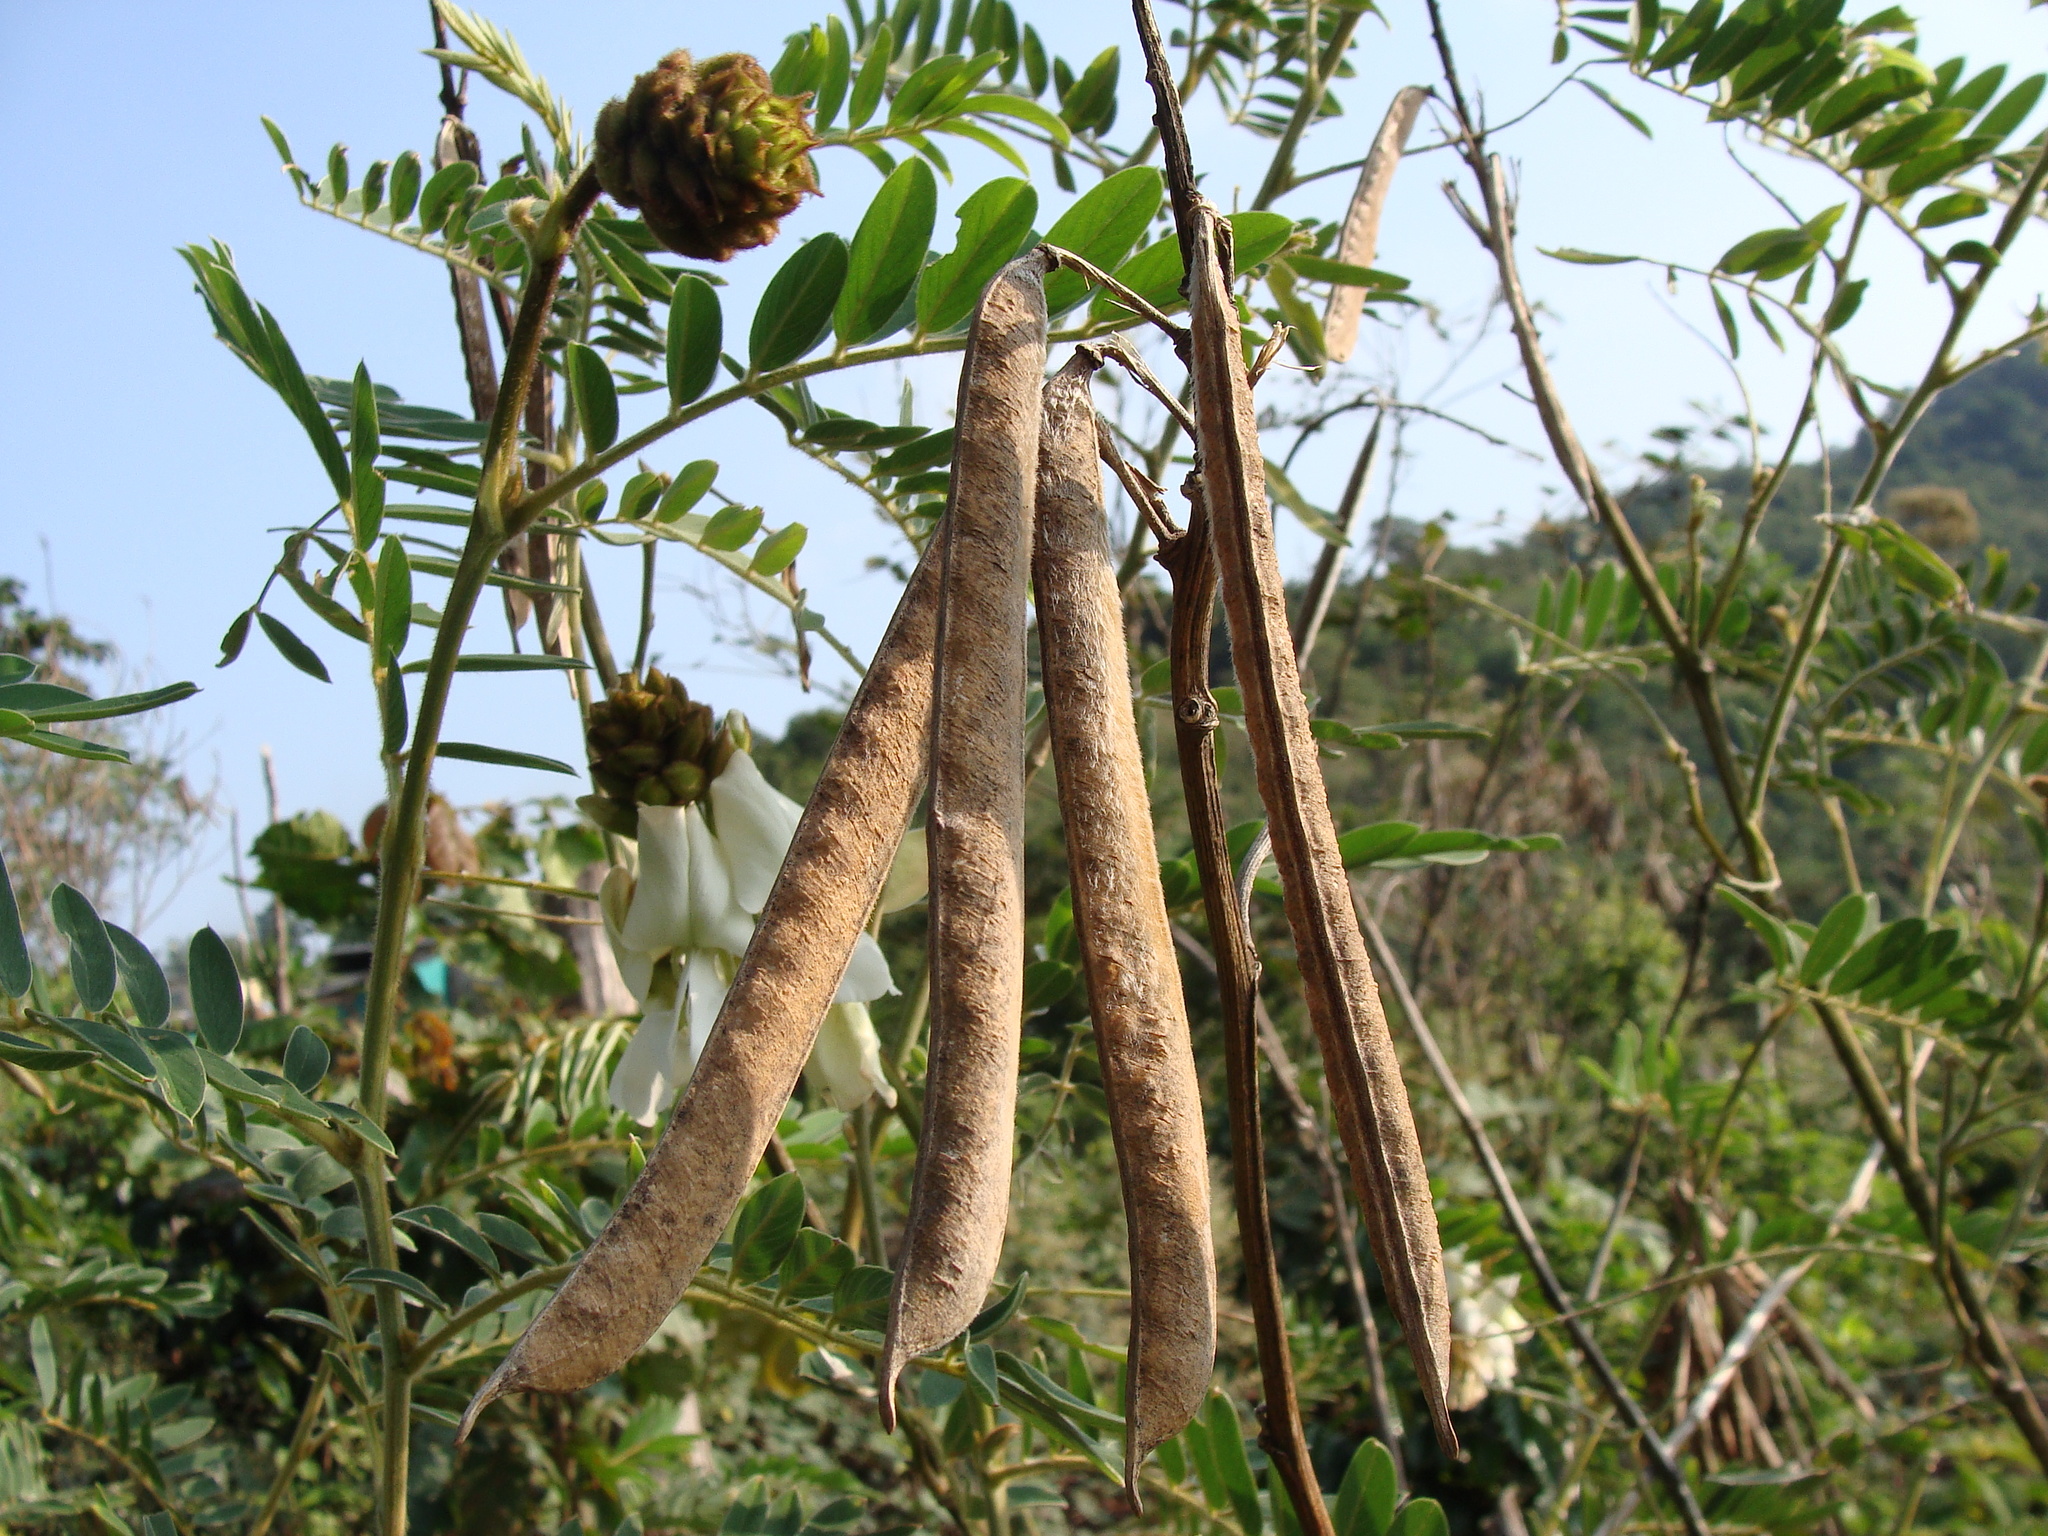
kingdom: Plantae
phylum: Tracheophyta
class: Magnoliopsida
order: Fabales
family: Fabaceae
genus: Tephrosia
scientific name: Tephrosia vogelii
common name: Vogel tephrosia
